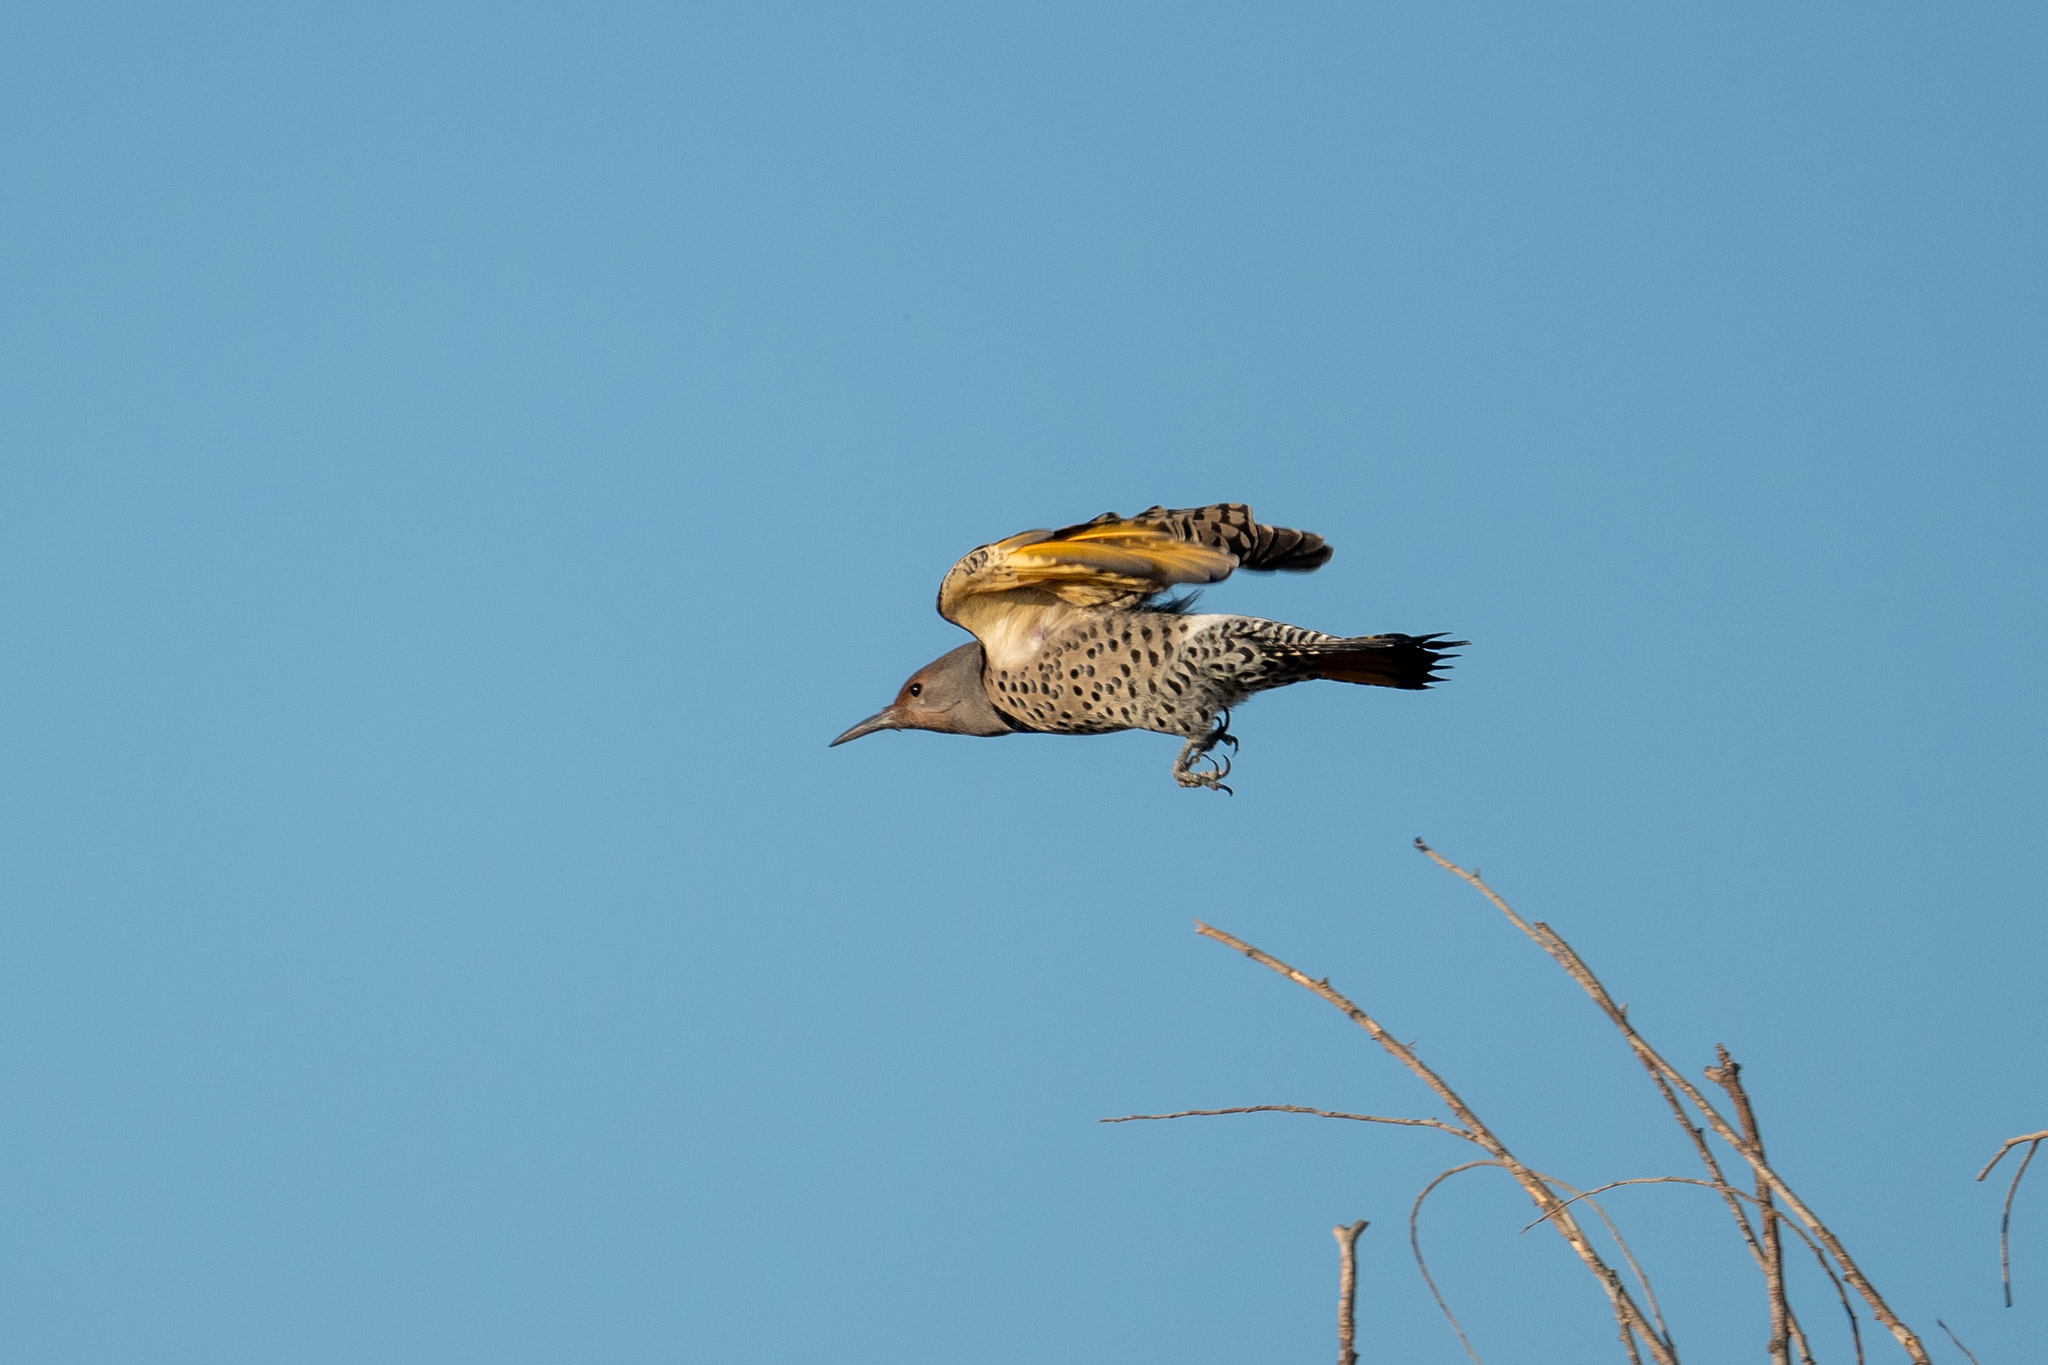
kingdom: Animalia
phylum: Chordata
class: Aves
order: Piciformes
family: Picidae
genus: Colaptes
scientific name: Colaptes auratus
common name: Northern flicker
